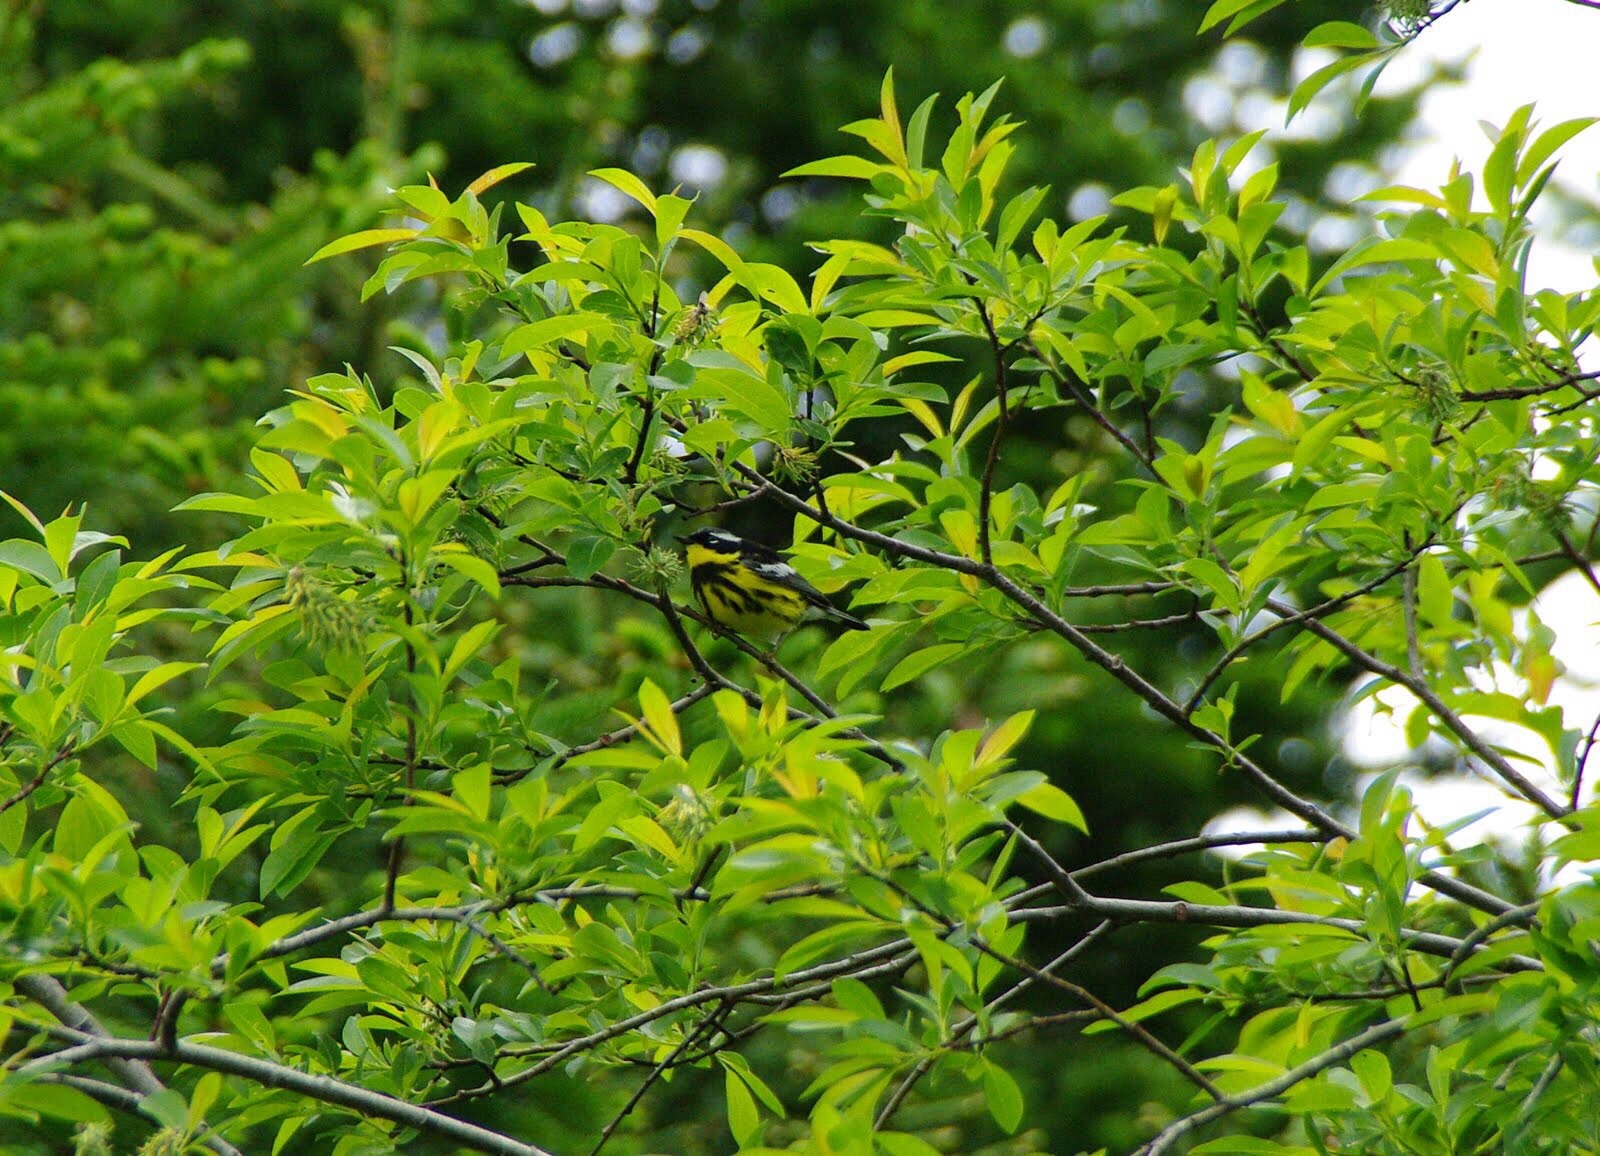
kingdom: Animalia
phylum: Chordata
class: Aves
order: Passeriformes
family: Parulidae
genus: Setophaga
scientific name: Setophaga magnolia
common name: Magnolia warbler
